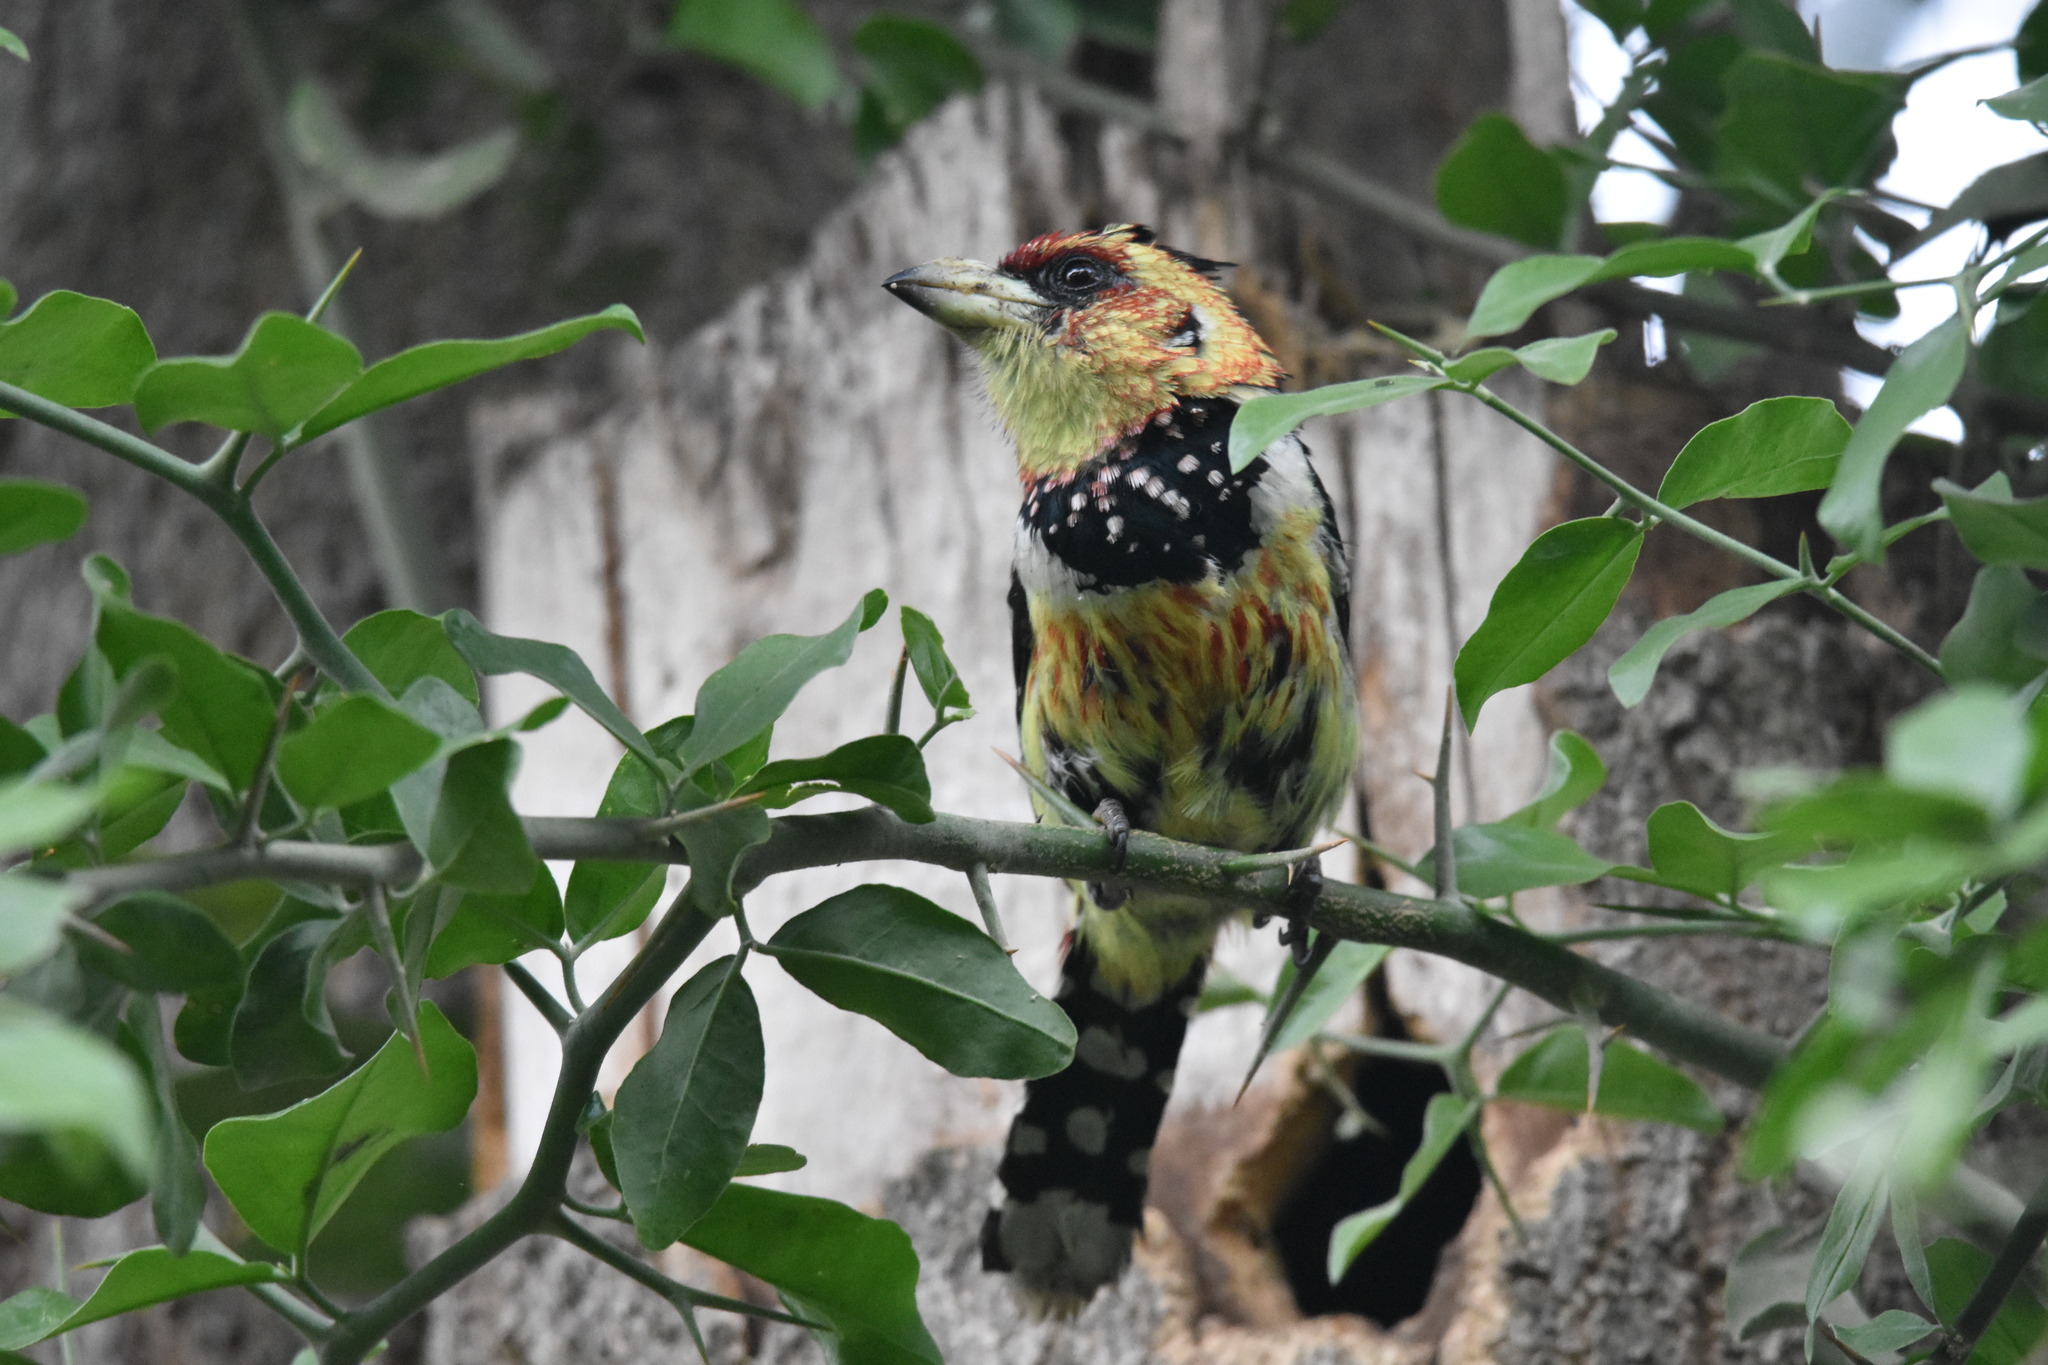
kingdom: Animalia
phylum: Chordata
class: Aves
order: Piciformes
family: Lybiidae
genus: Trachyphonus
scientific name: Trachyphonus vaillantii
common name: Crested barbet
